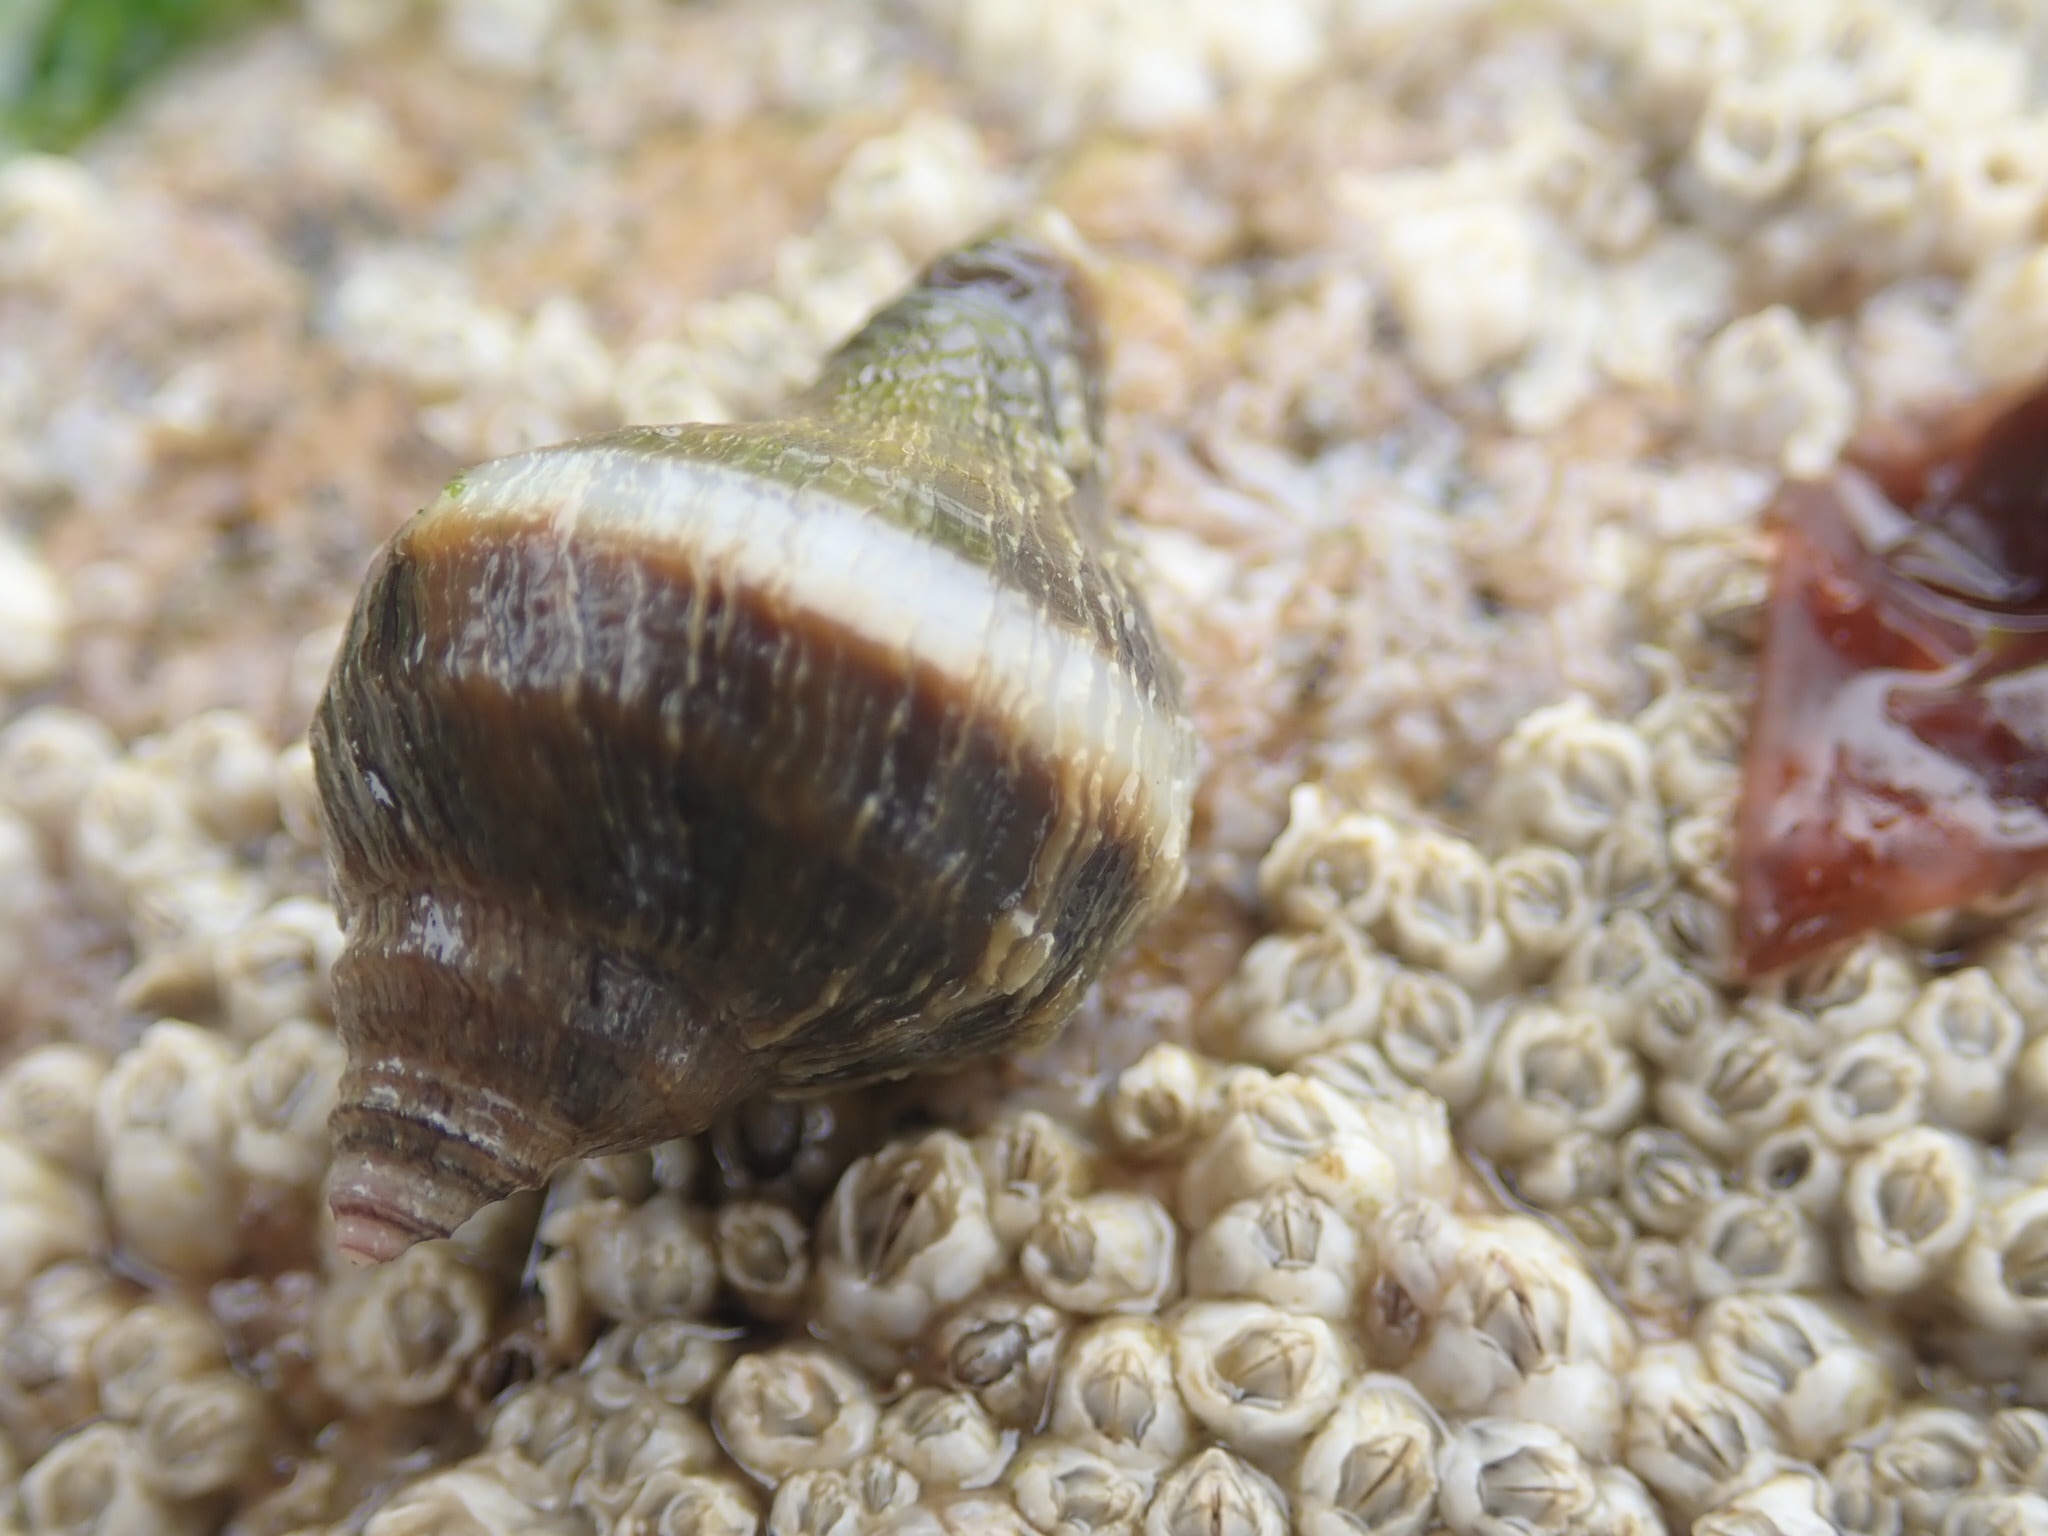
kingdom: Animalia
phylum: Mollusca
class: Gastropoda
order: Neogastropoda
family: Muricidae
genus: Nucella
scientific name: Nucella lamellosa
